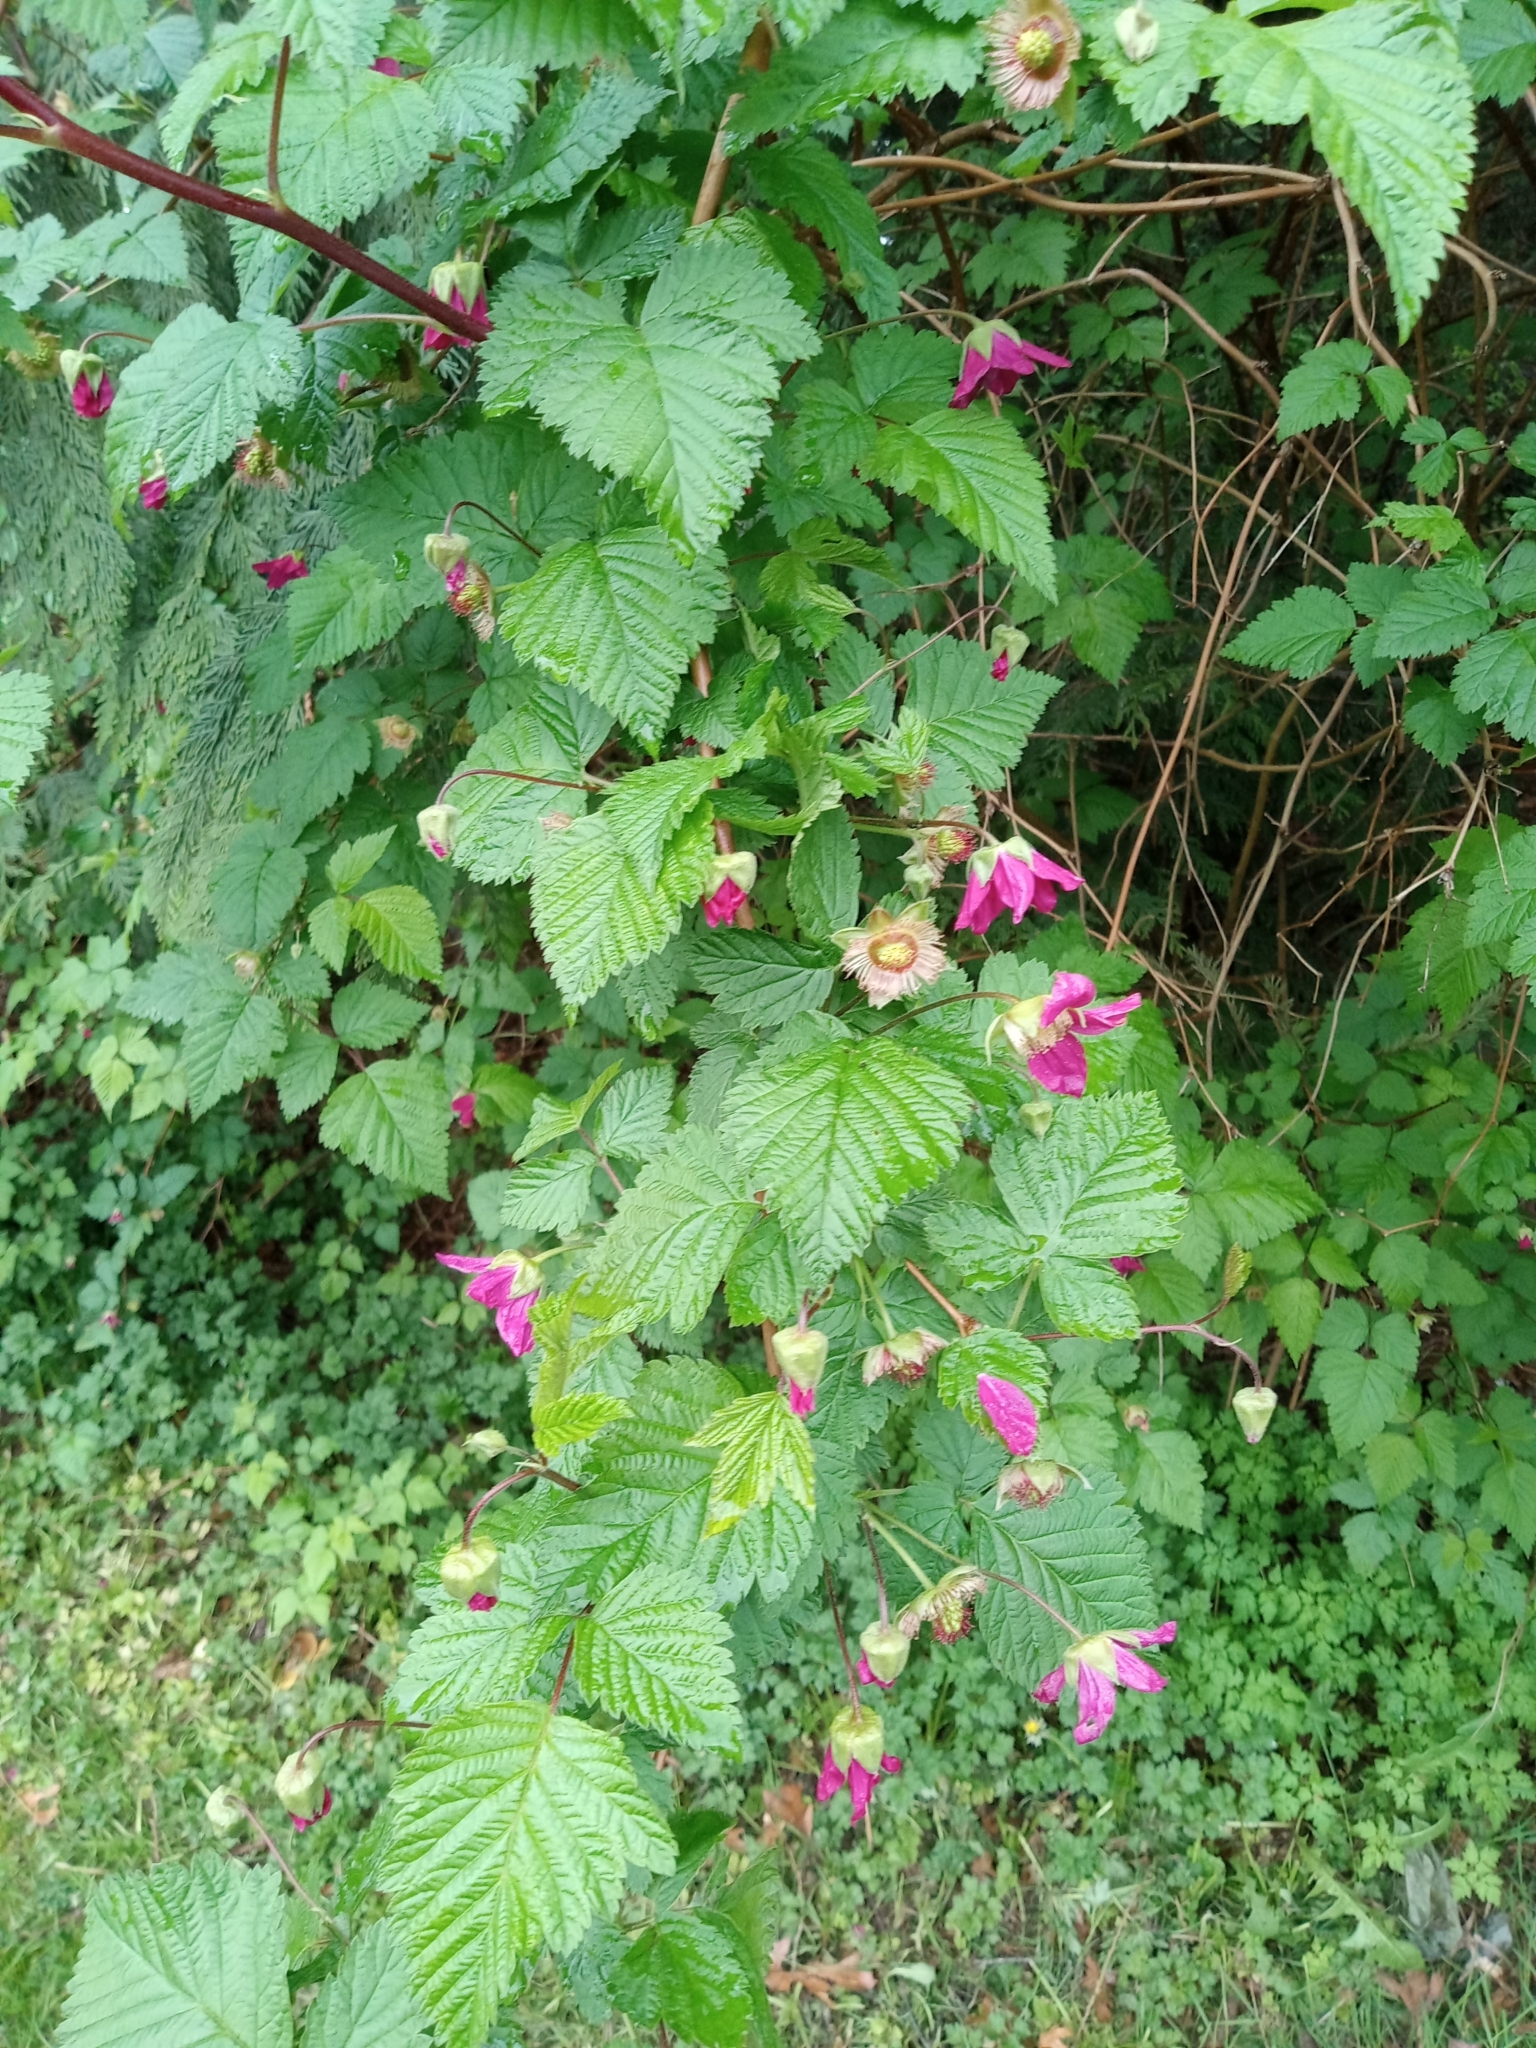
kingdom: Plantae
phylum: Tracheophyta
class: Magnoliopsida
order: Rosales
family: Rosaceae
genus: Rubus
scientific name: Rubus spectabilis
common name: Salmonberry
